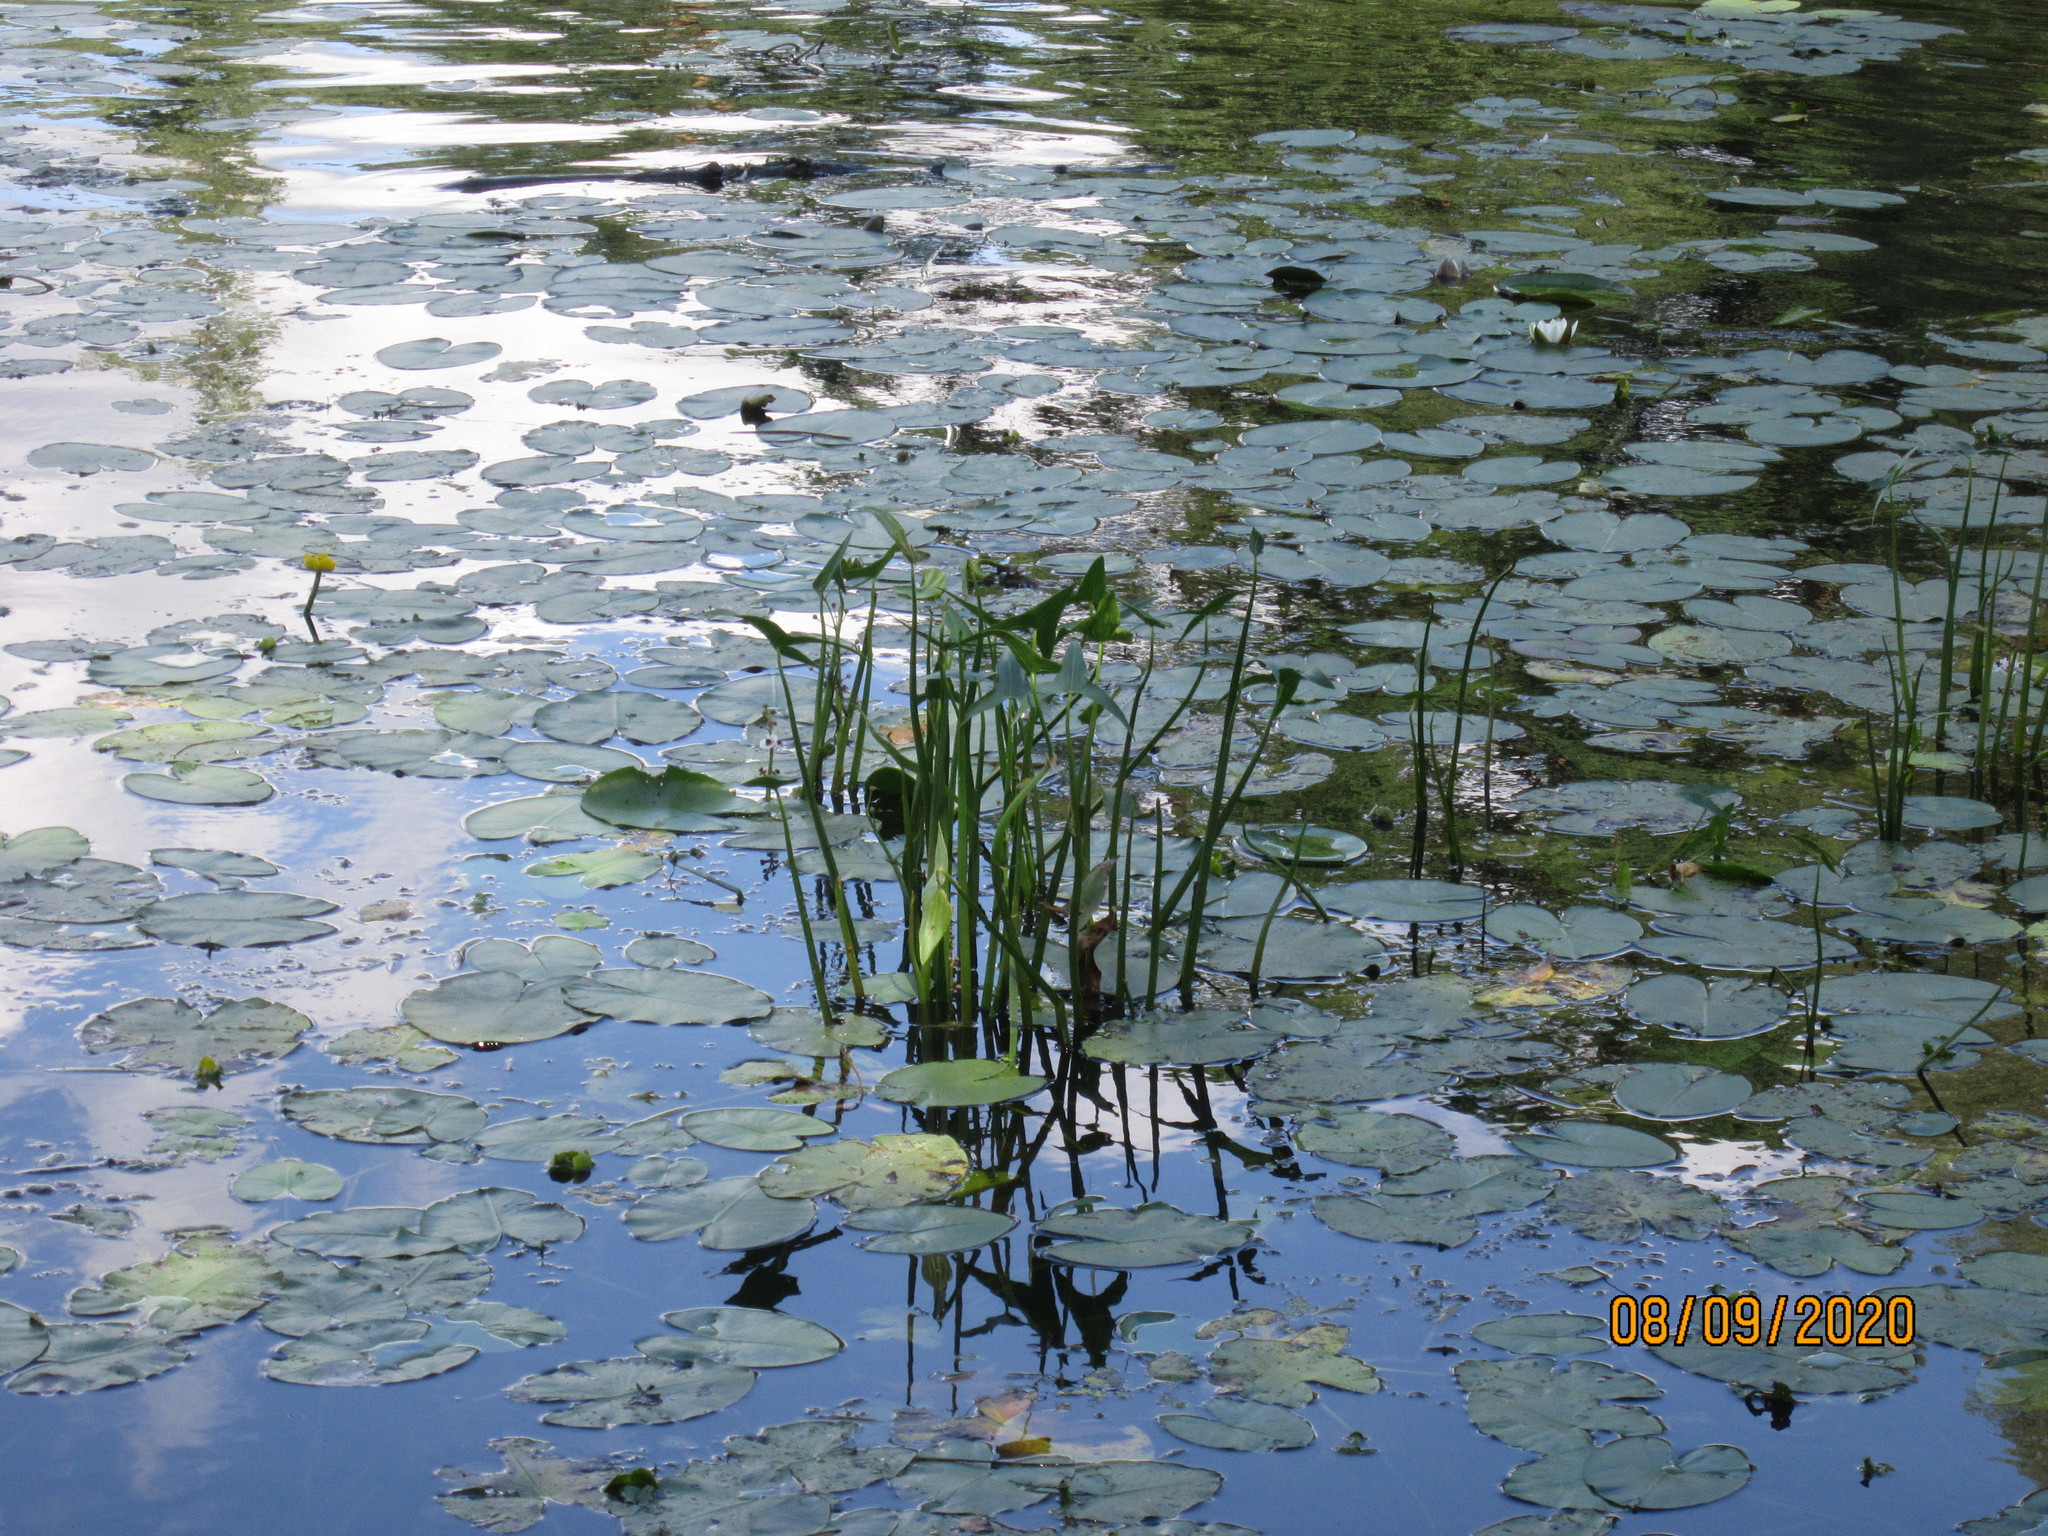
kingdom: Plantae
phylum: Tracheophyta
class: Liliopsida
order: Alismatales
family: Alismataceae
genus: Sagittaria
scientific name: Sagittaria sagittifolia
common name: Arrowhead
